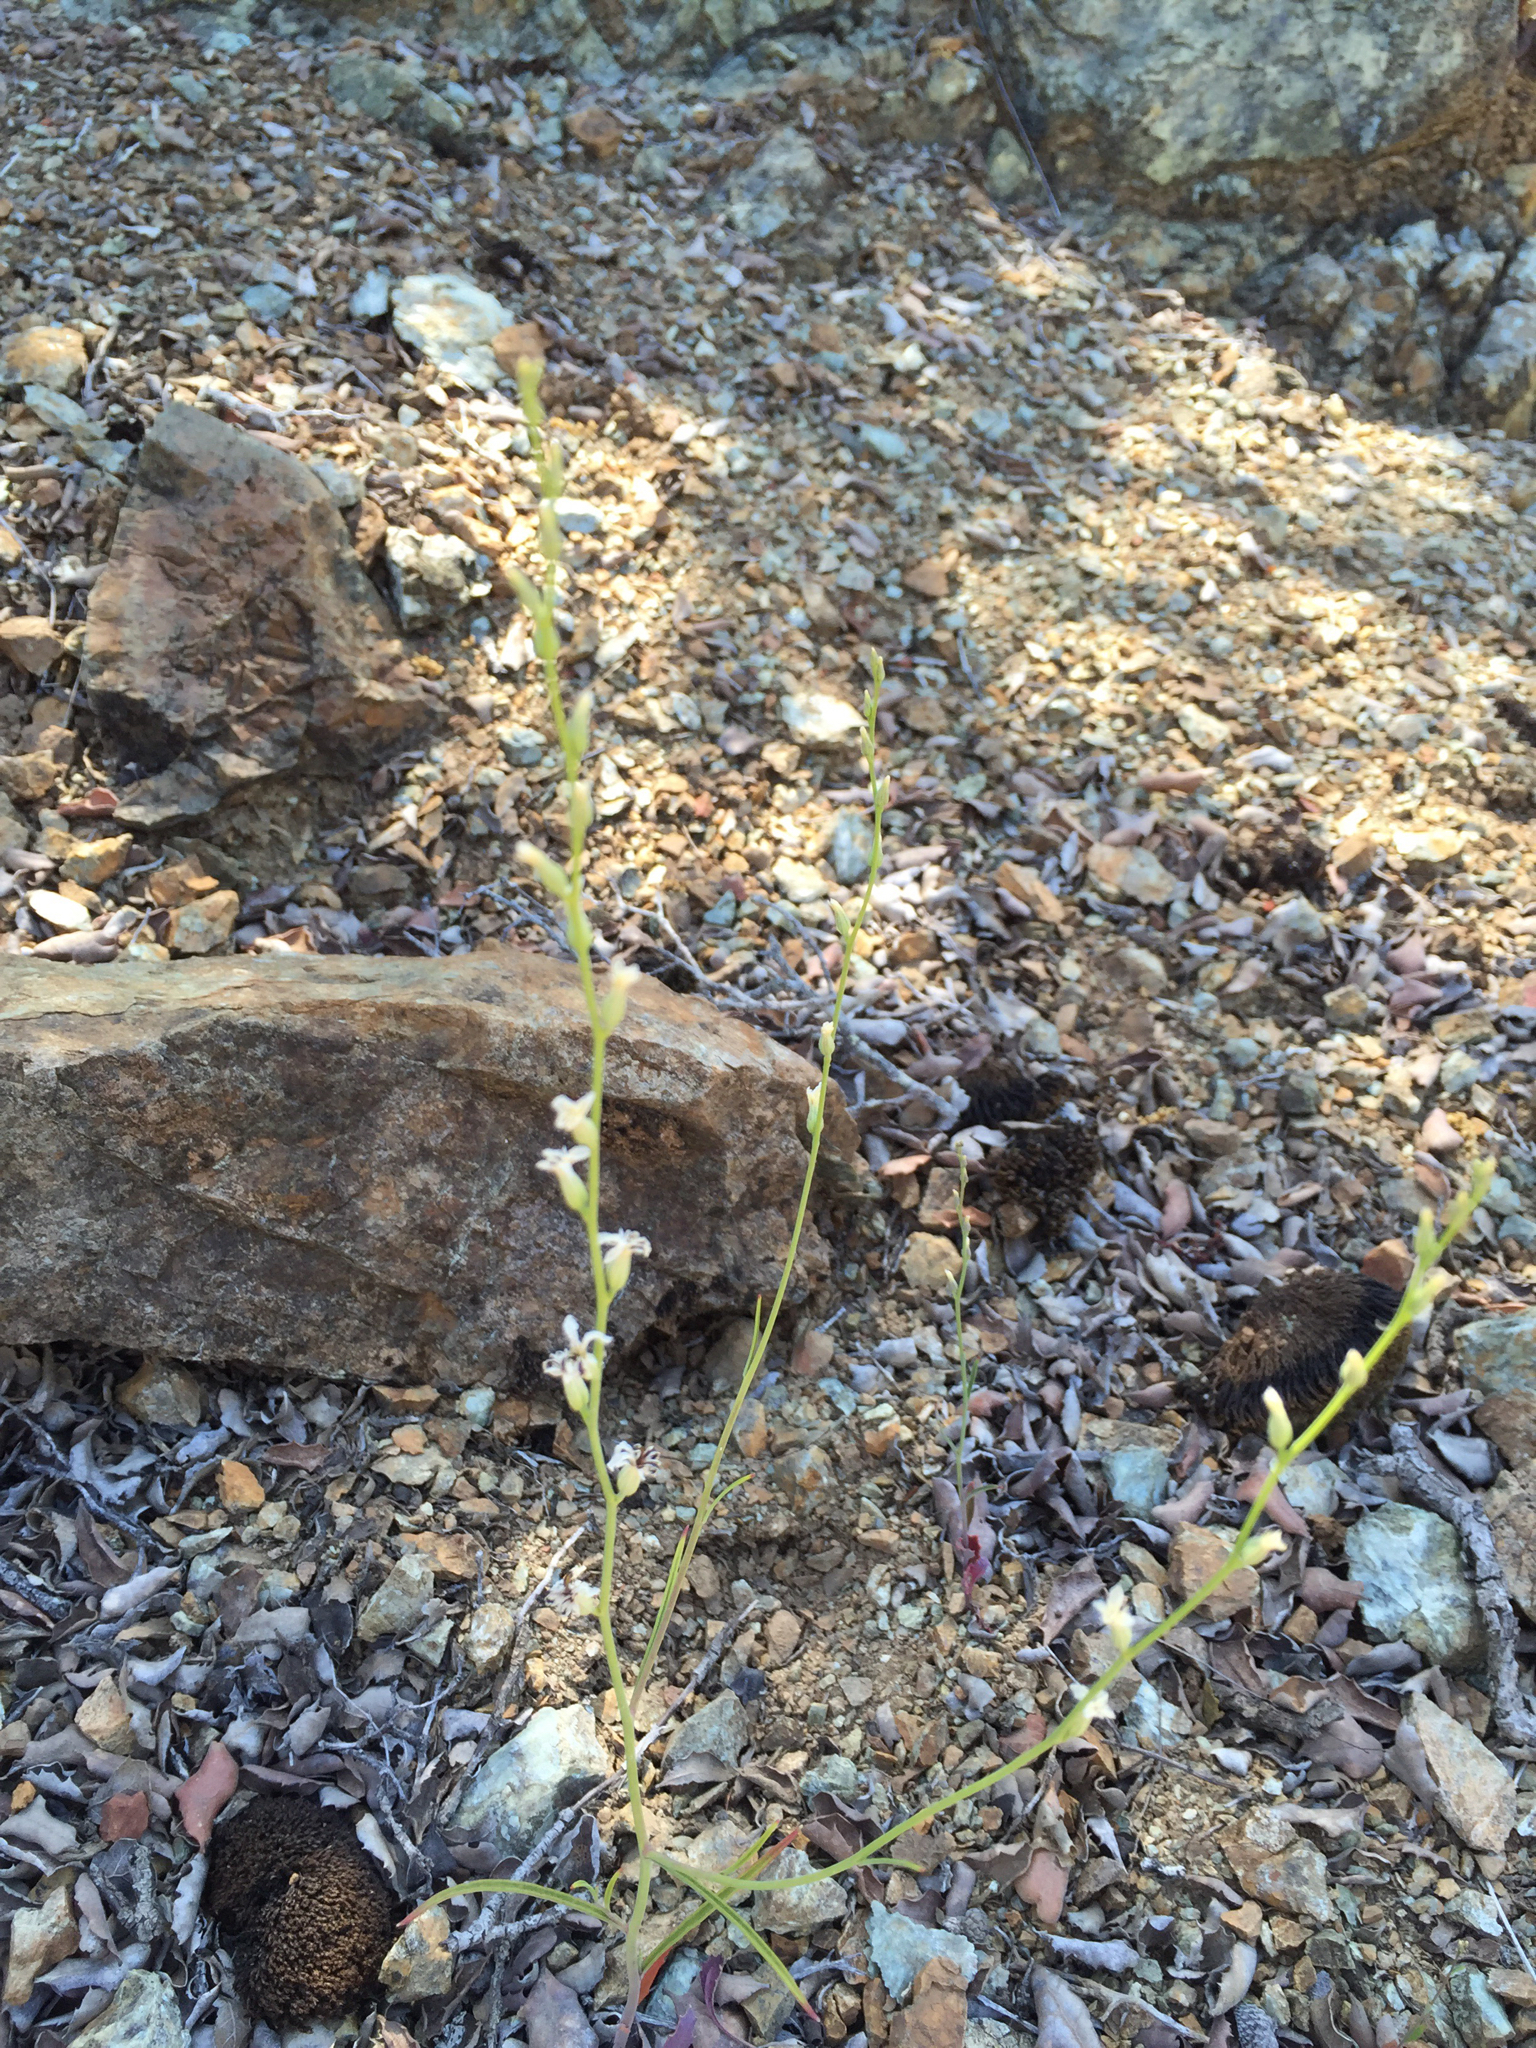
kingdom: Plantae
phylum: Tracheophyta
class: Magnoliopsida
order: Brassicales
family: Brassicaceae
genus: Streptanthus
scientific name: Streptanthus barbiger
